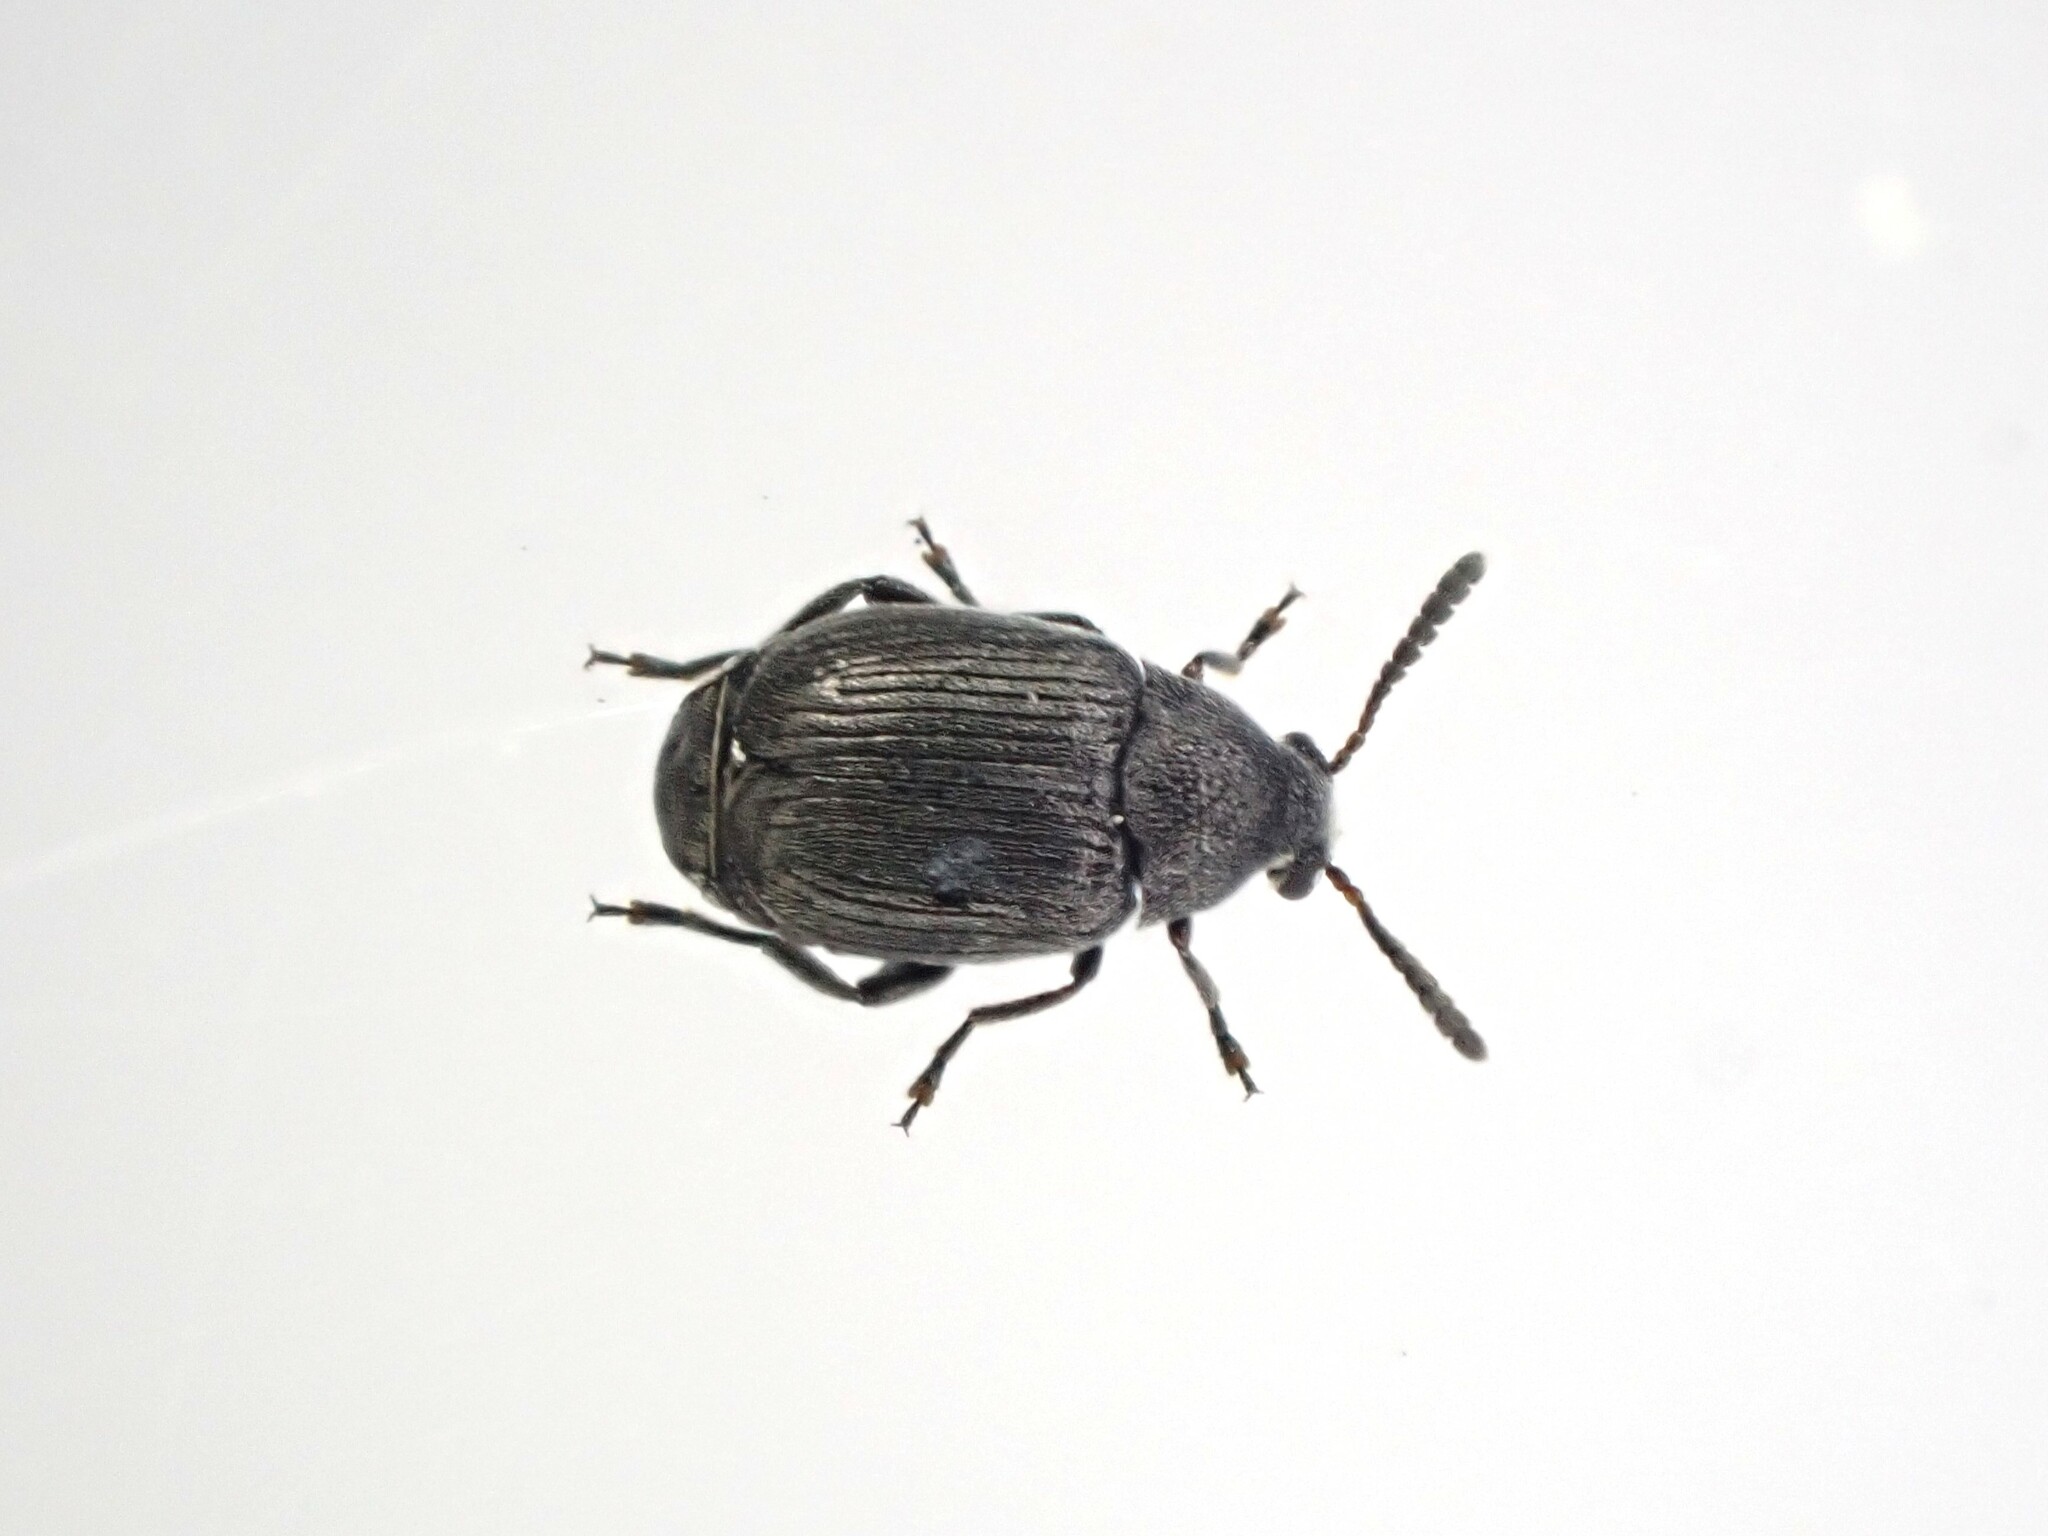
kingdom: Animalia
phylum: Arthropoda
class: Insecta
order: Coleoptera
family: Chrysomelidae
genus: Bruchidius
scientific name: Bruchidius villosus
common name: Scotch broom bruchid
